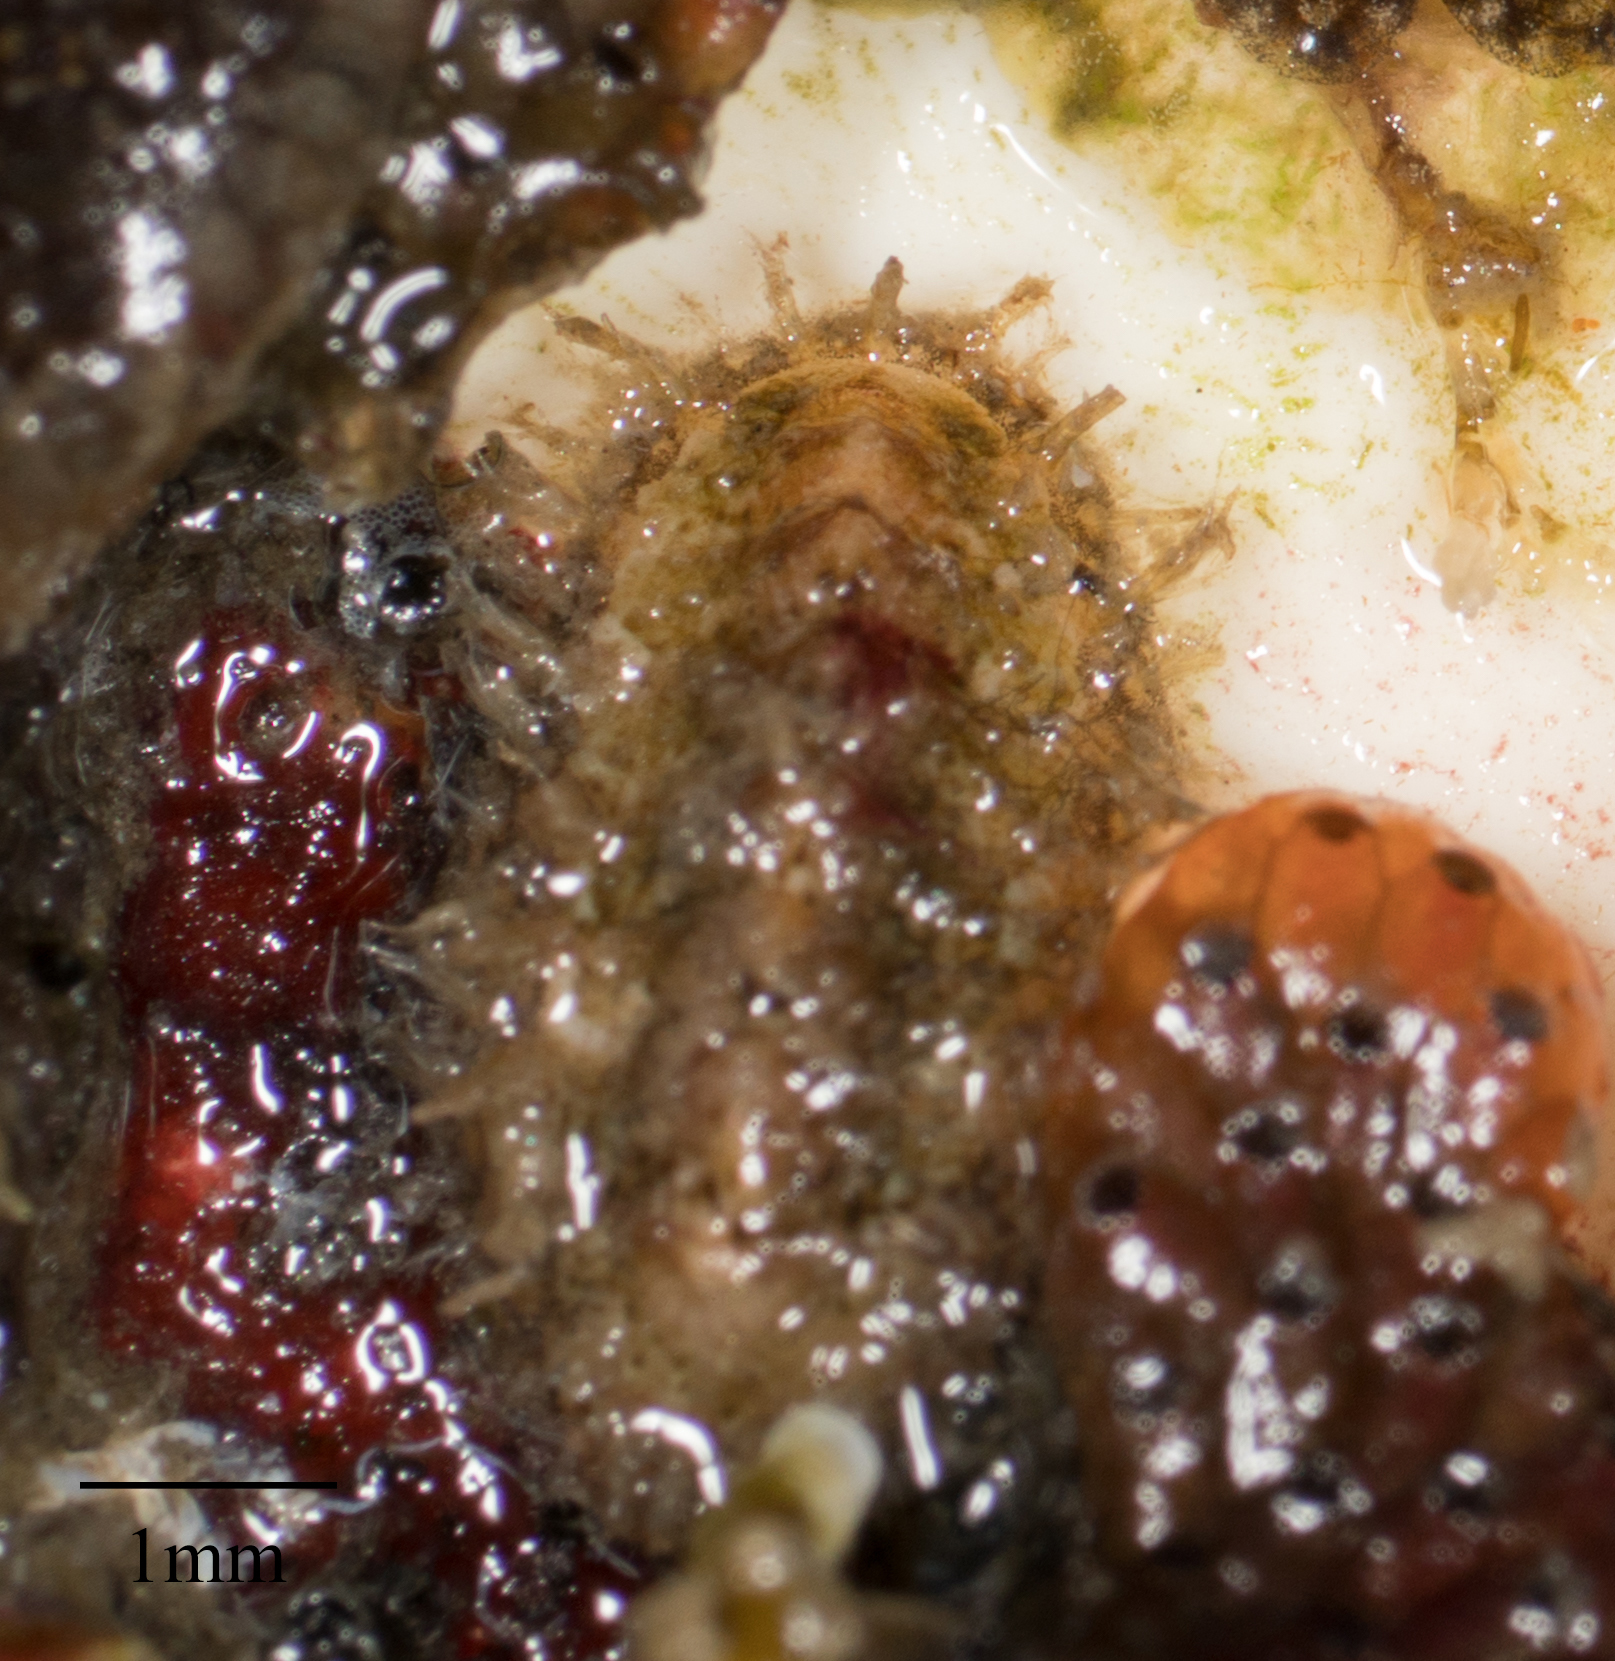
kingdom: Animalia
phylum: Mollusca
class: Polyplacophora
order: Chitonida
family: Mopaliidae
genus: Mopalia
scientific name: Mopalia cirrata
